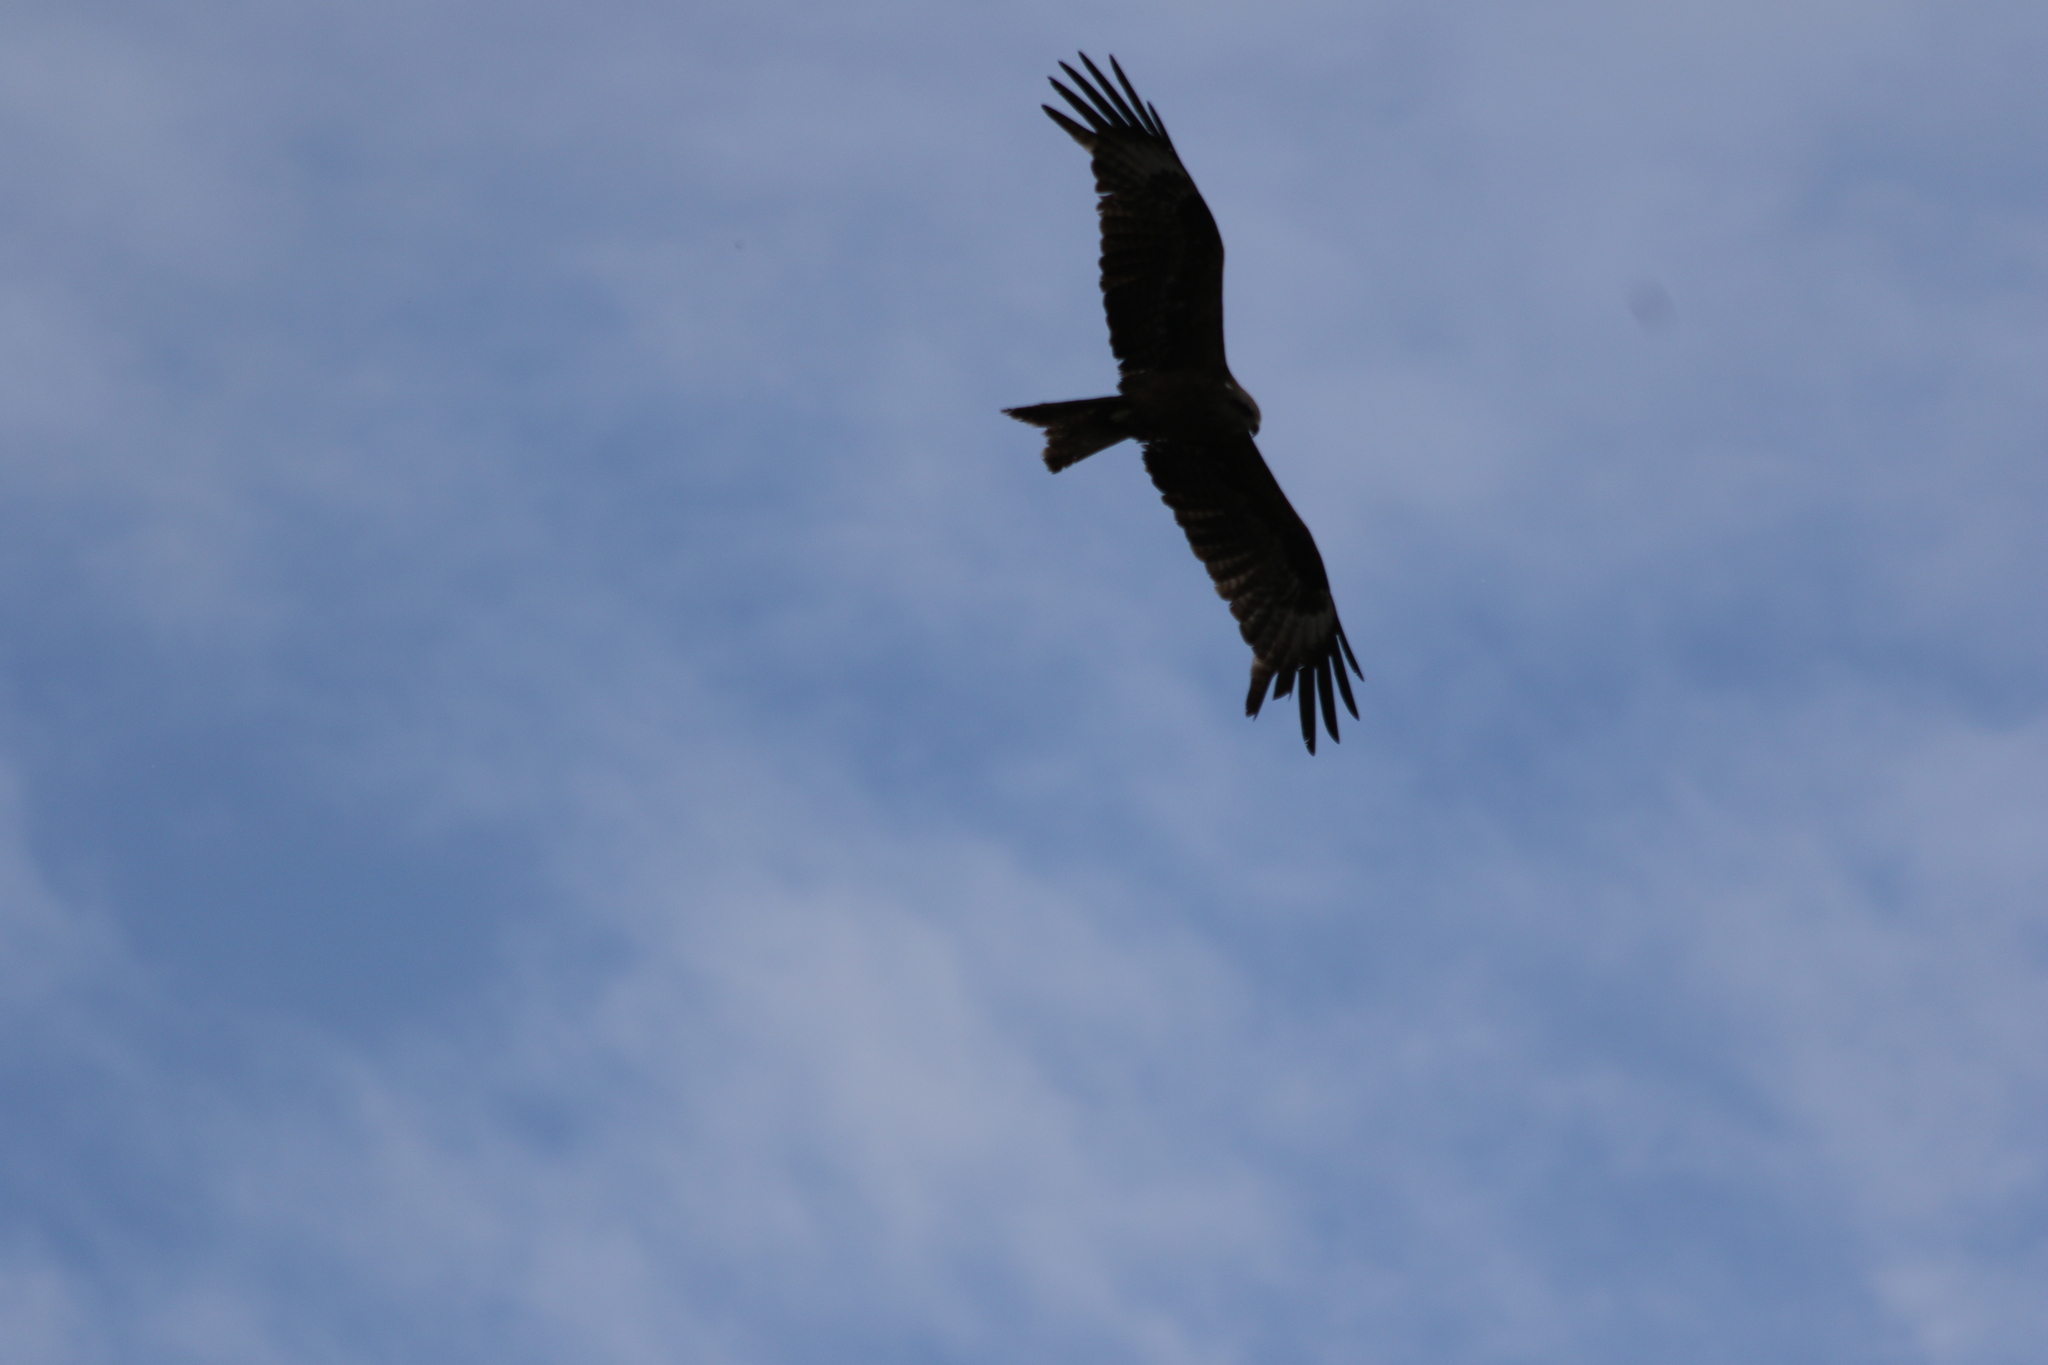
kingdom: Animalia
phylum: Chordata
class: Aves
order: Accipitriformes
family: Accipitridae
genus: Milvus
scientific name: Milvus migrans
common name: Black kite
